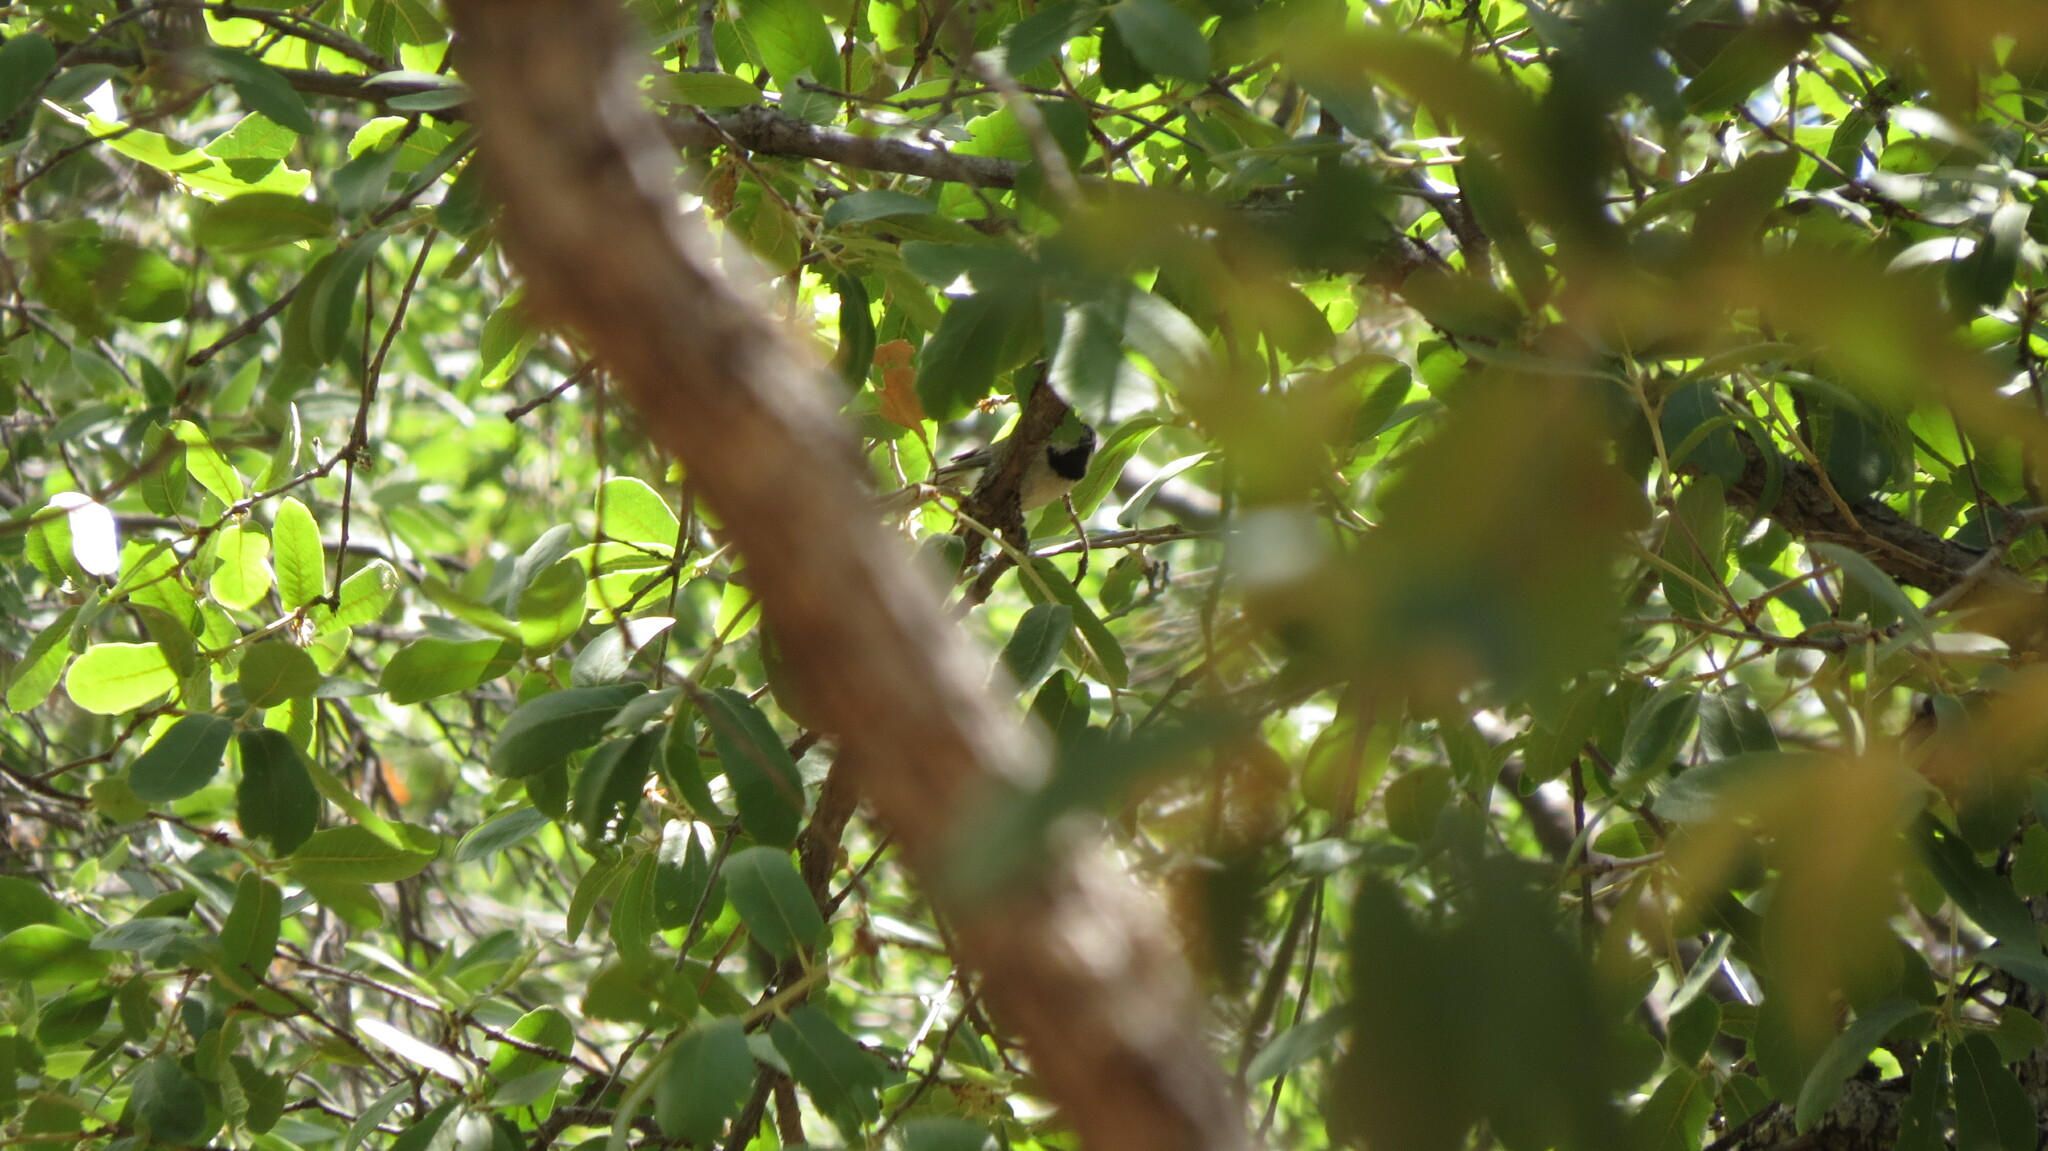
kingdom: Animalia
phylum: Chordata
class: Aves
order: Passeriformes
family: Paridae
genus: Baeolophus
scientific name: Baeolophus wollweberi
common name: Bridled titmouse
